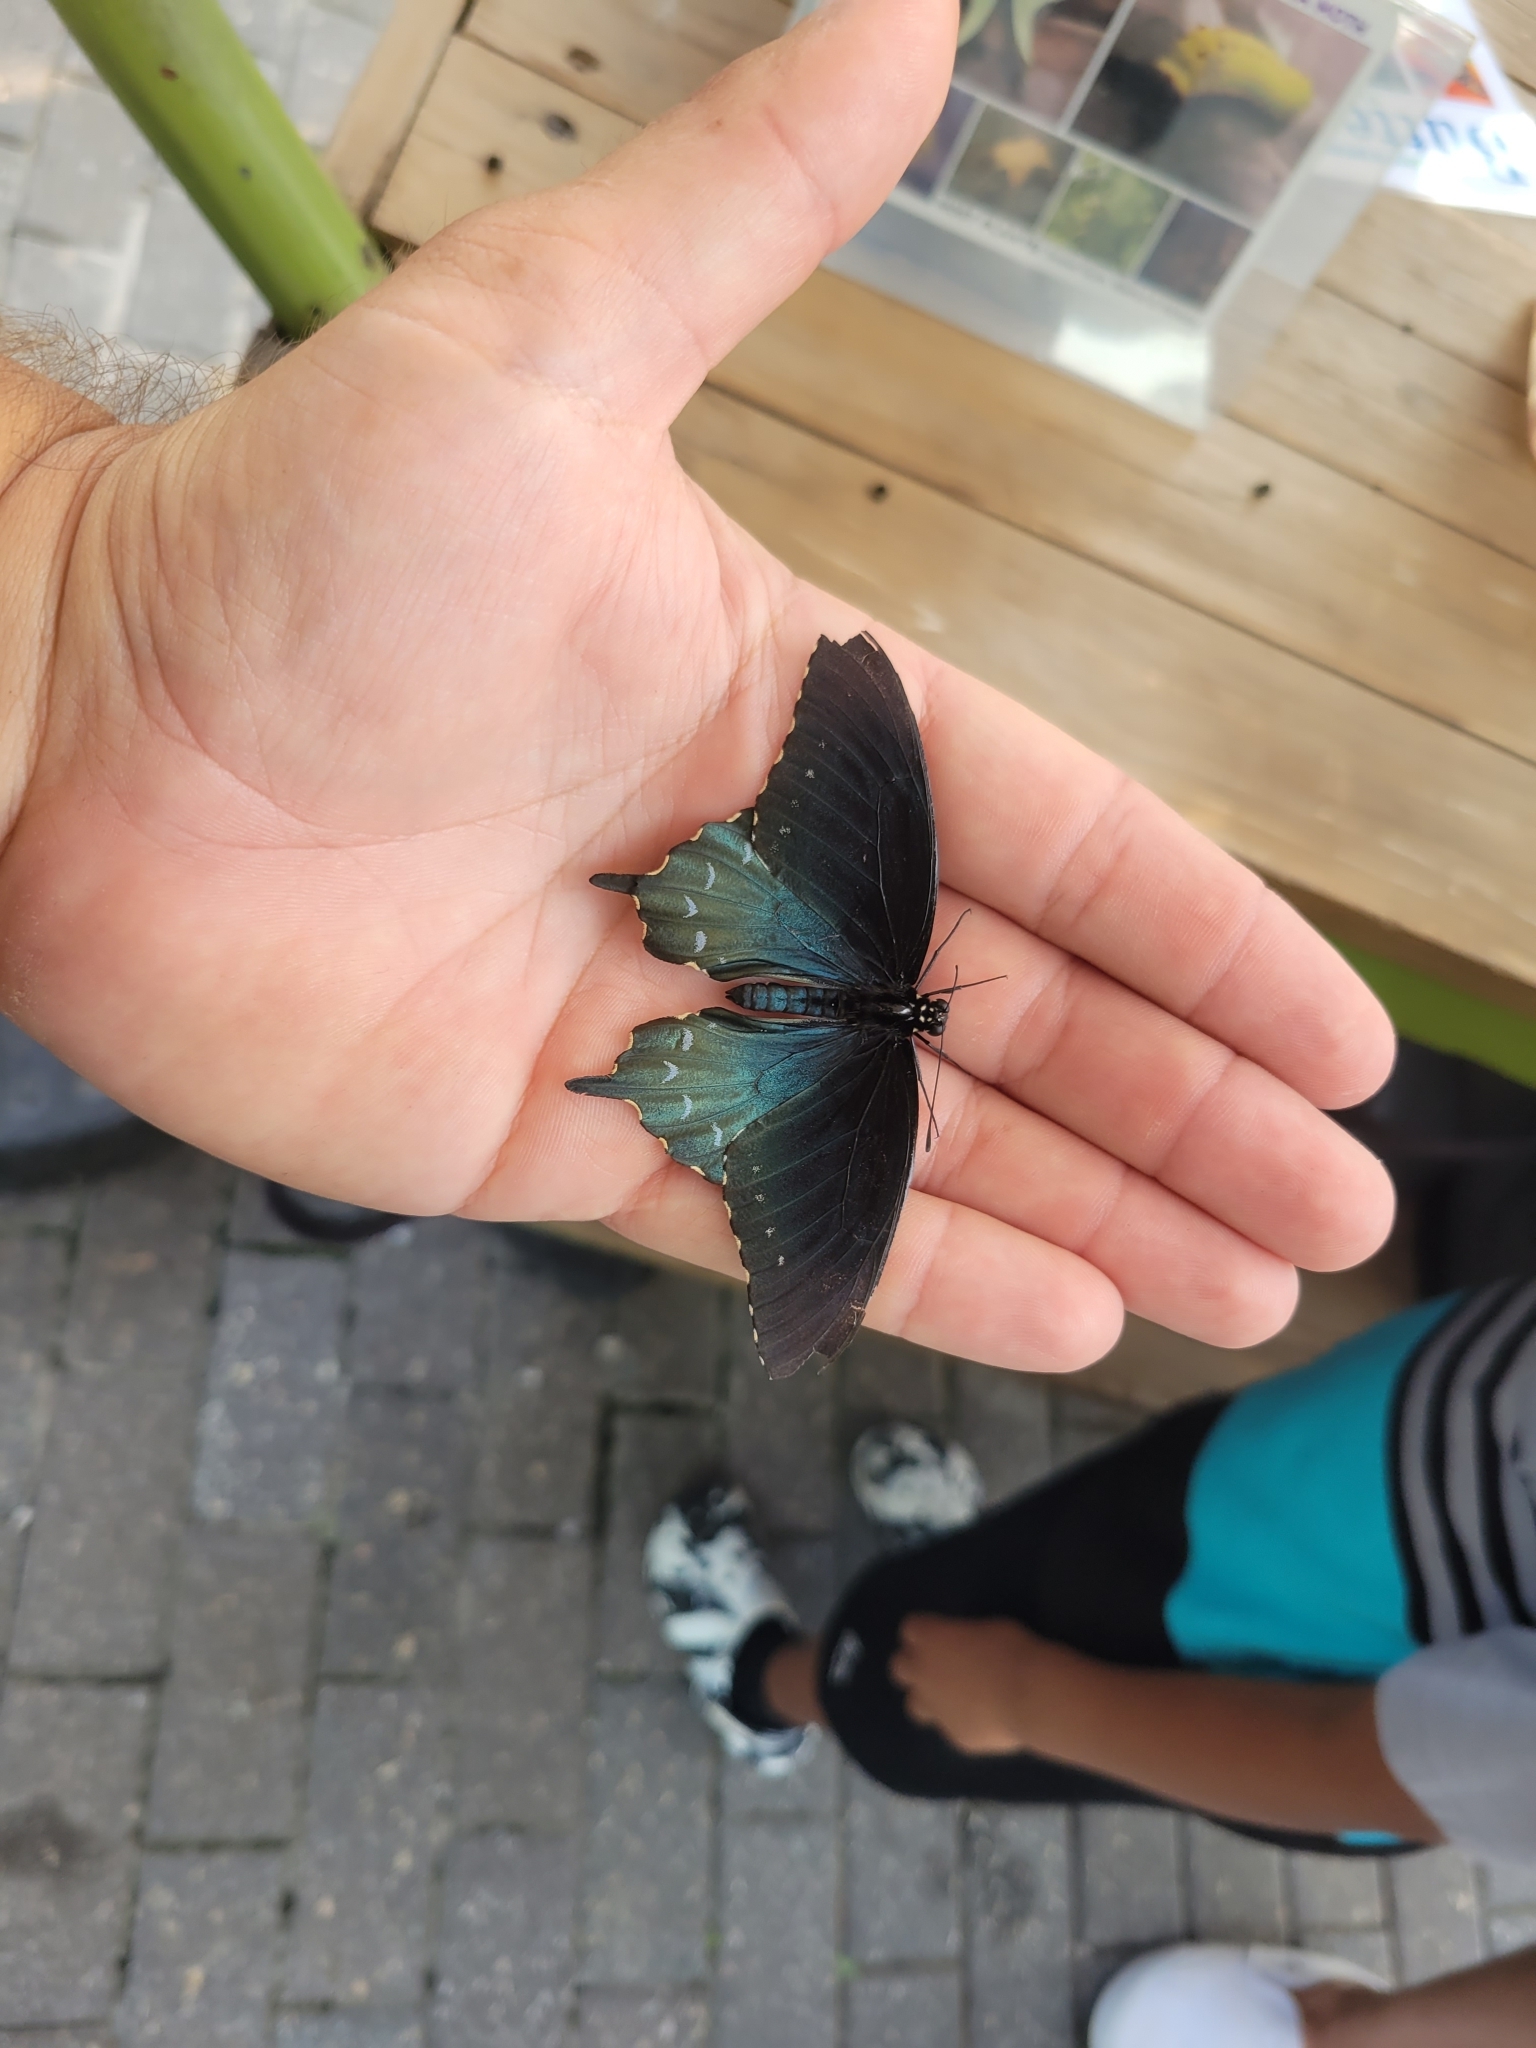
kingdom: Animalia
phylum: Arthropoda
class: Insecta
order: Lepidoptera
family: Papilionidae
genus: Battus
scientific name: Battus philenor
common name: Pipevine swallowtail
